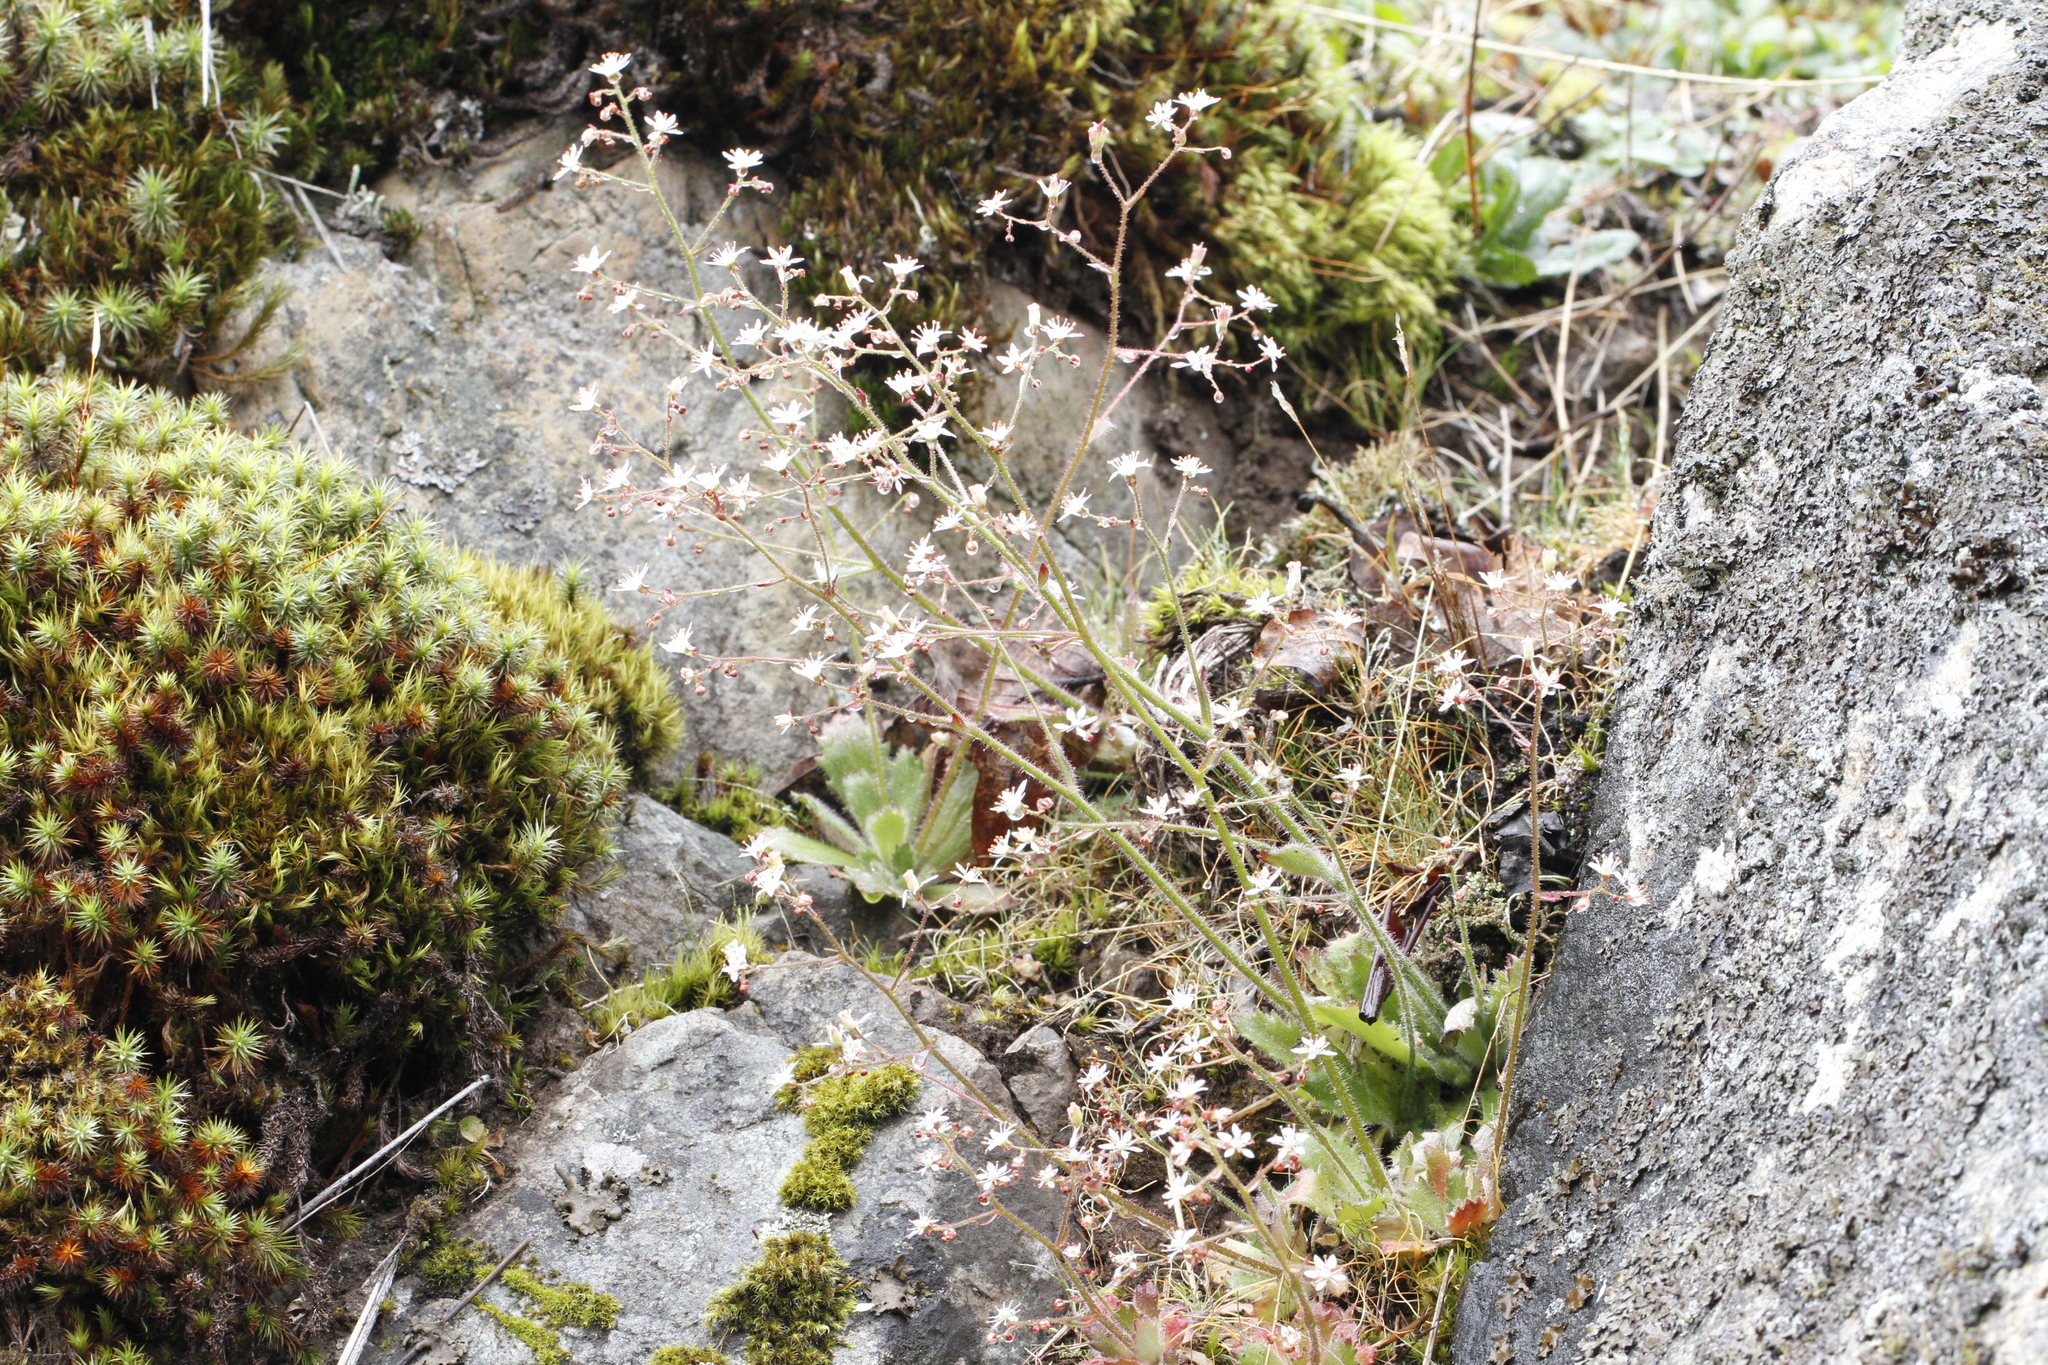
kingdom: Plantae
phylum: Tracheophyta
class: Magnoliopsida
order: Saxifragales
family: Saxifragaceae
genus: Micranthes
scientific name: Micranthes ferruginea
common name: Rusty saxifrage
